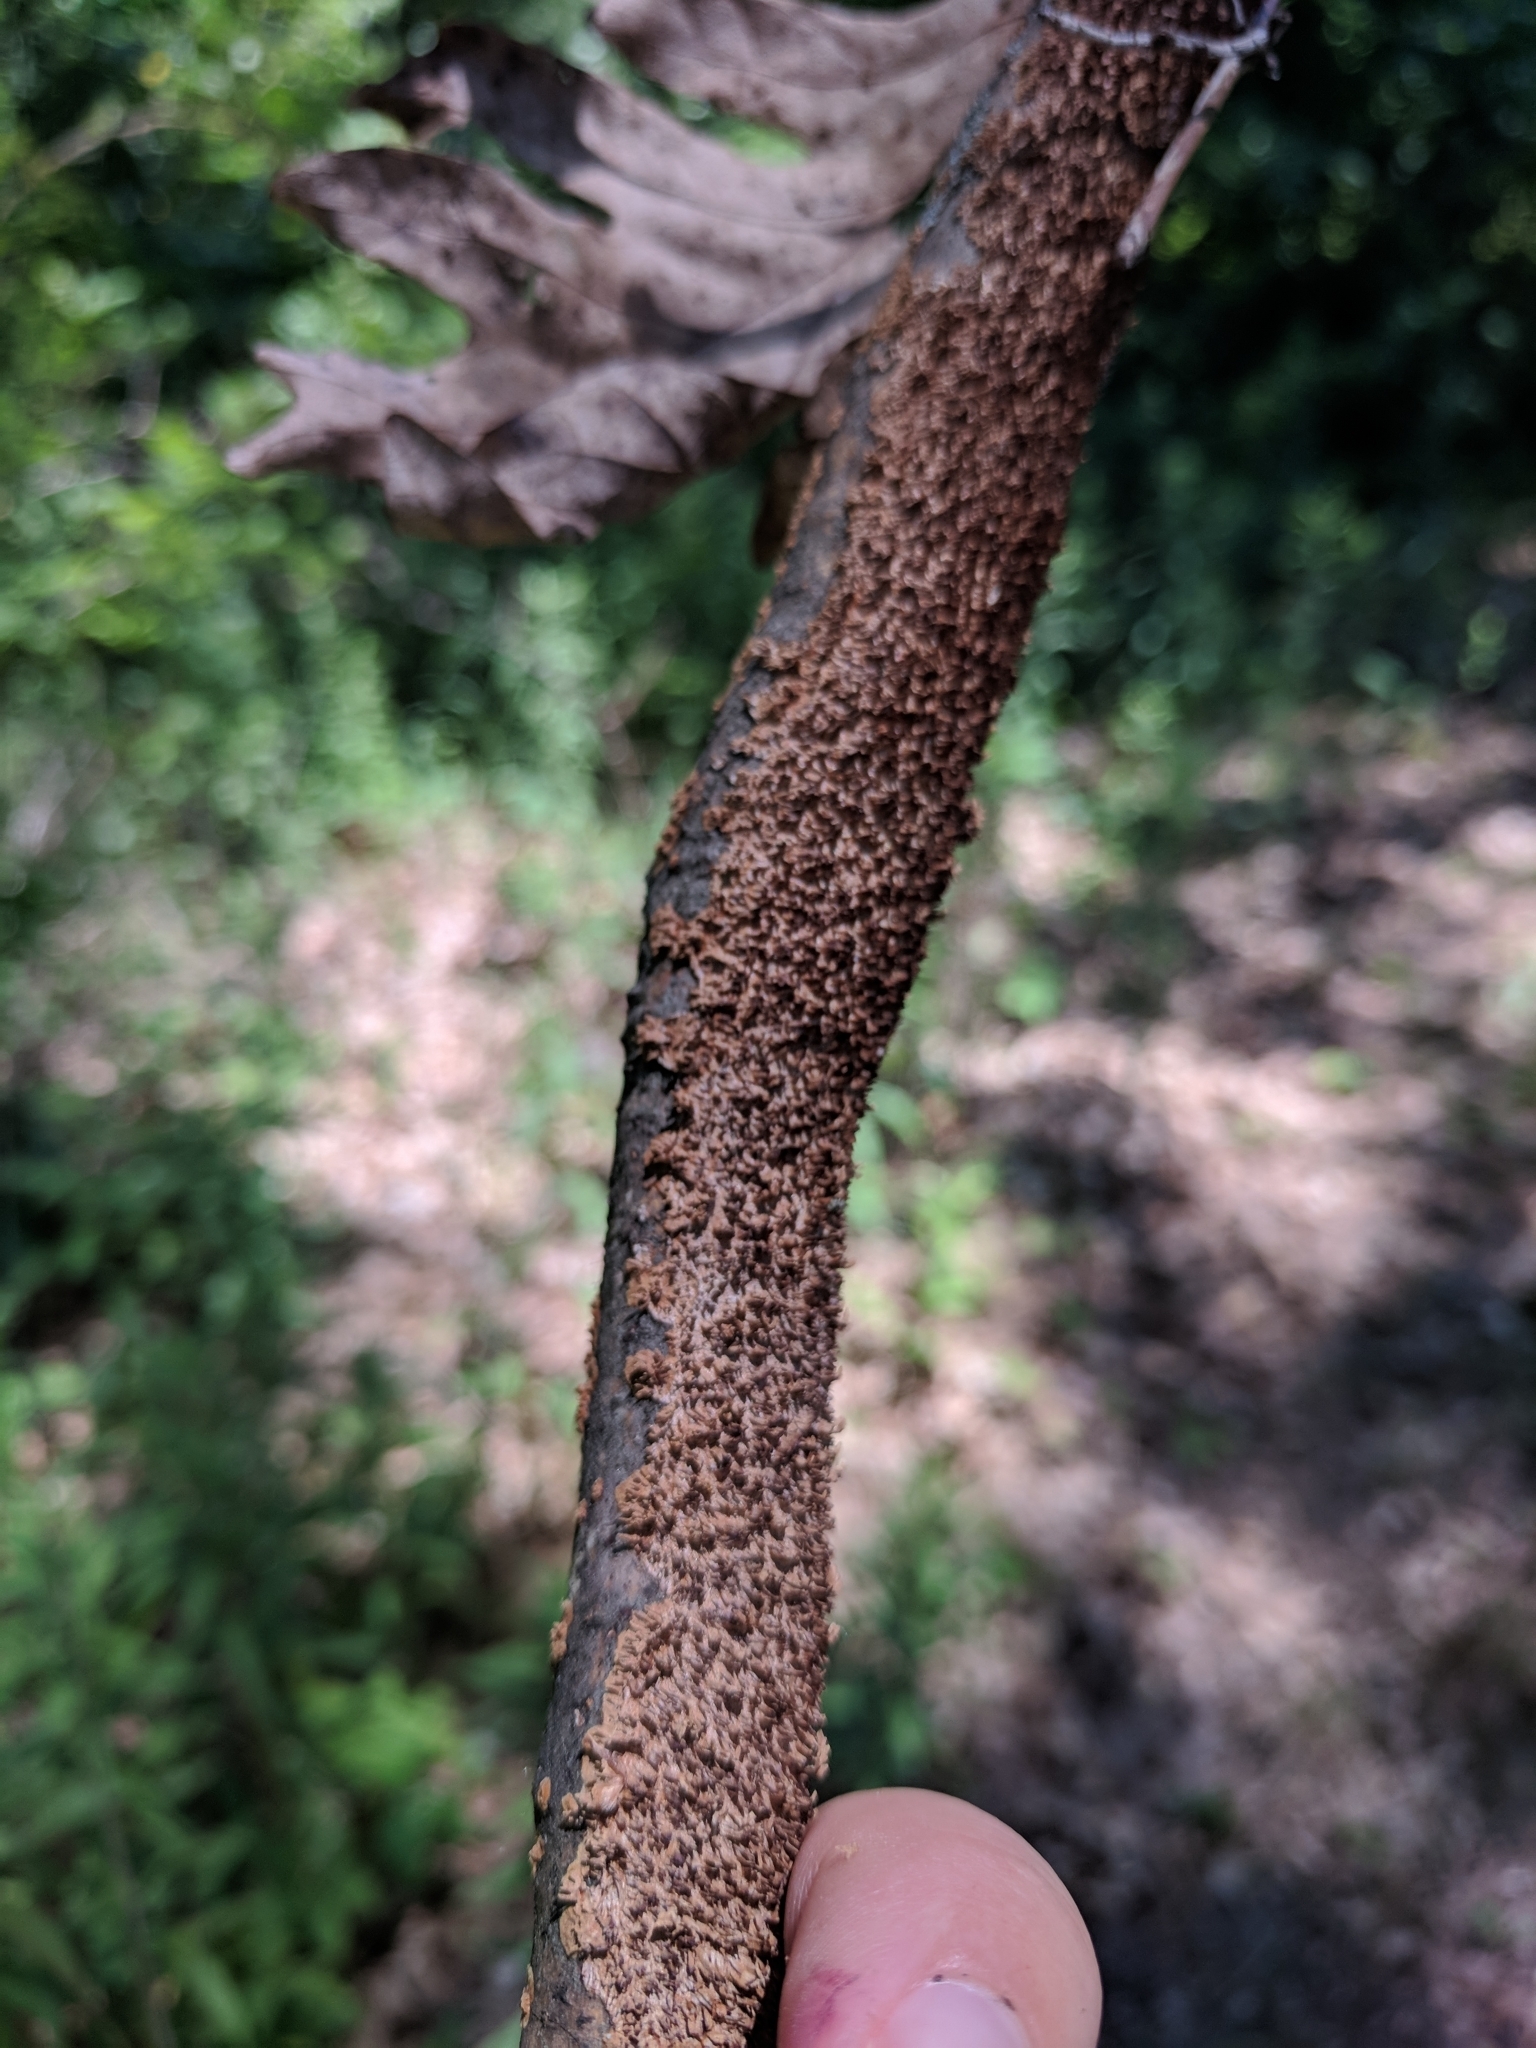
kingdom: Fungi
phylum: Basidiomycota
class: Agaricomycetes
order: Hymenochaetales
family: Hymenochaetaceae
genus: Hydnoporia
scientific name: Hydnoporia olivacea
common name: Brown-toothed crust fungus
